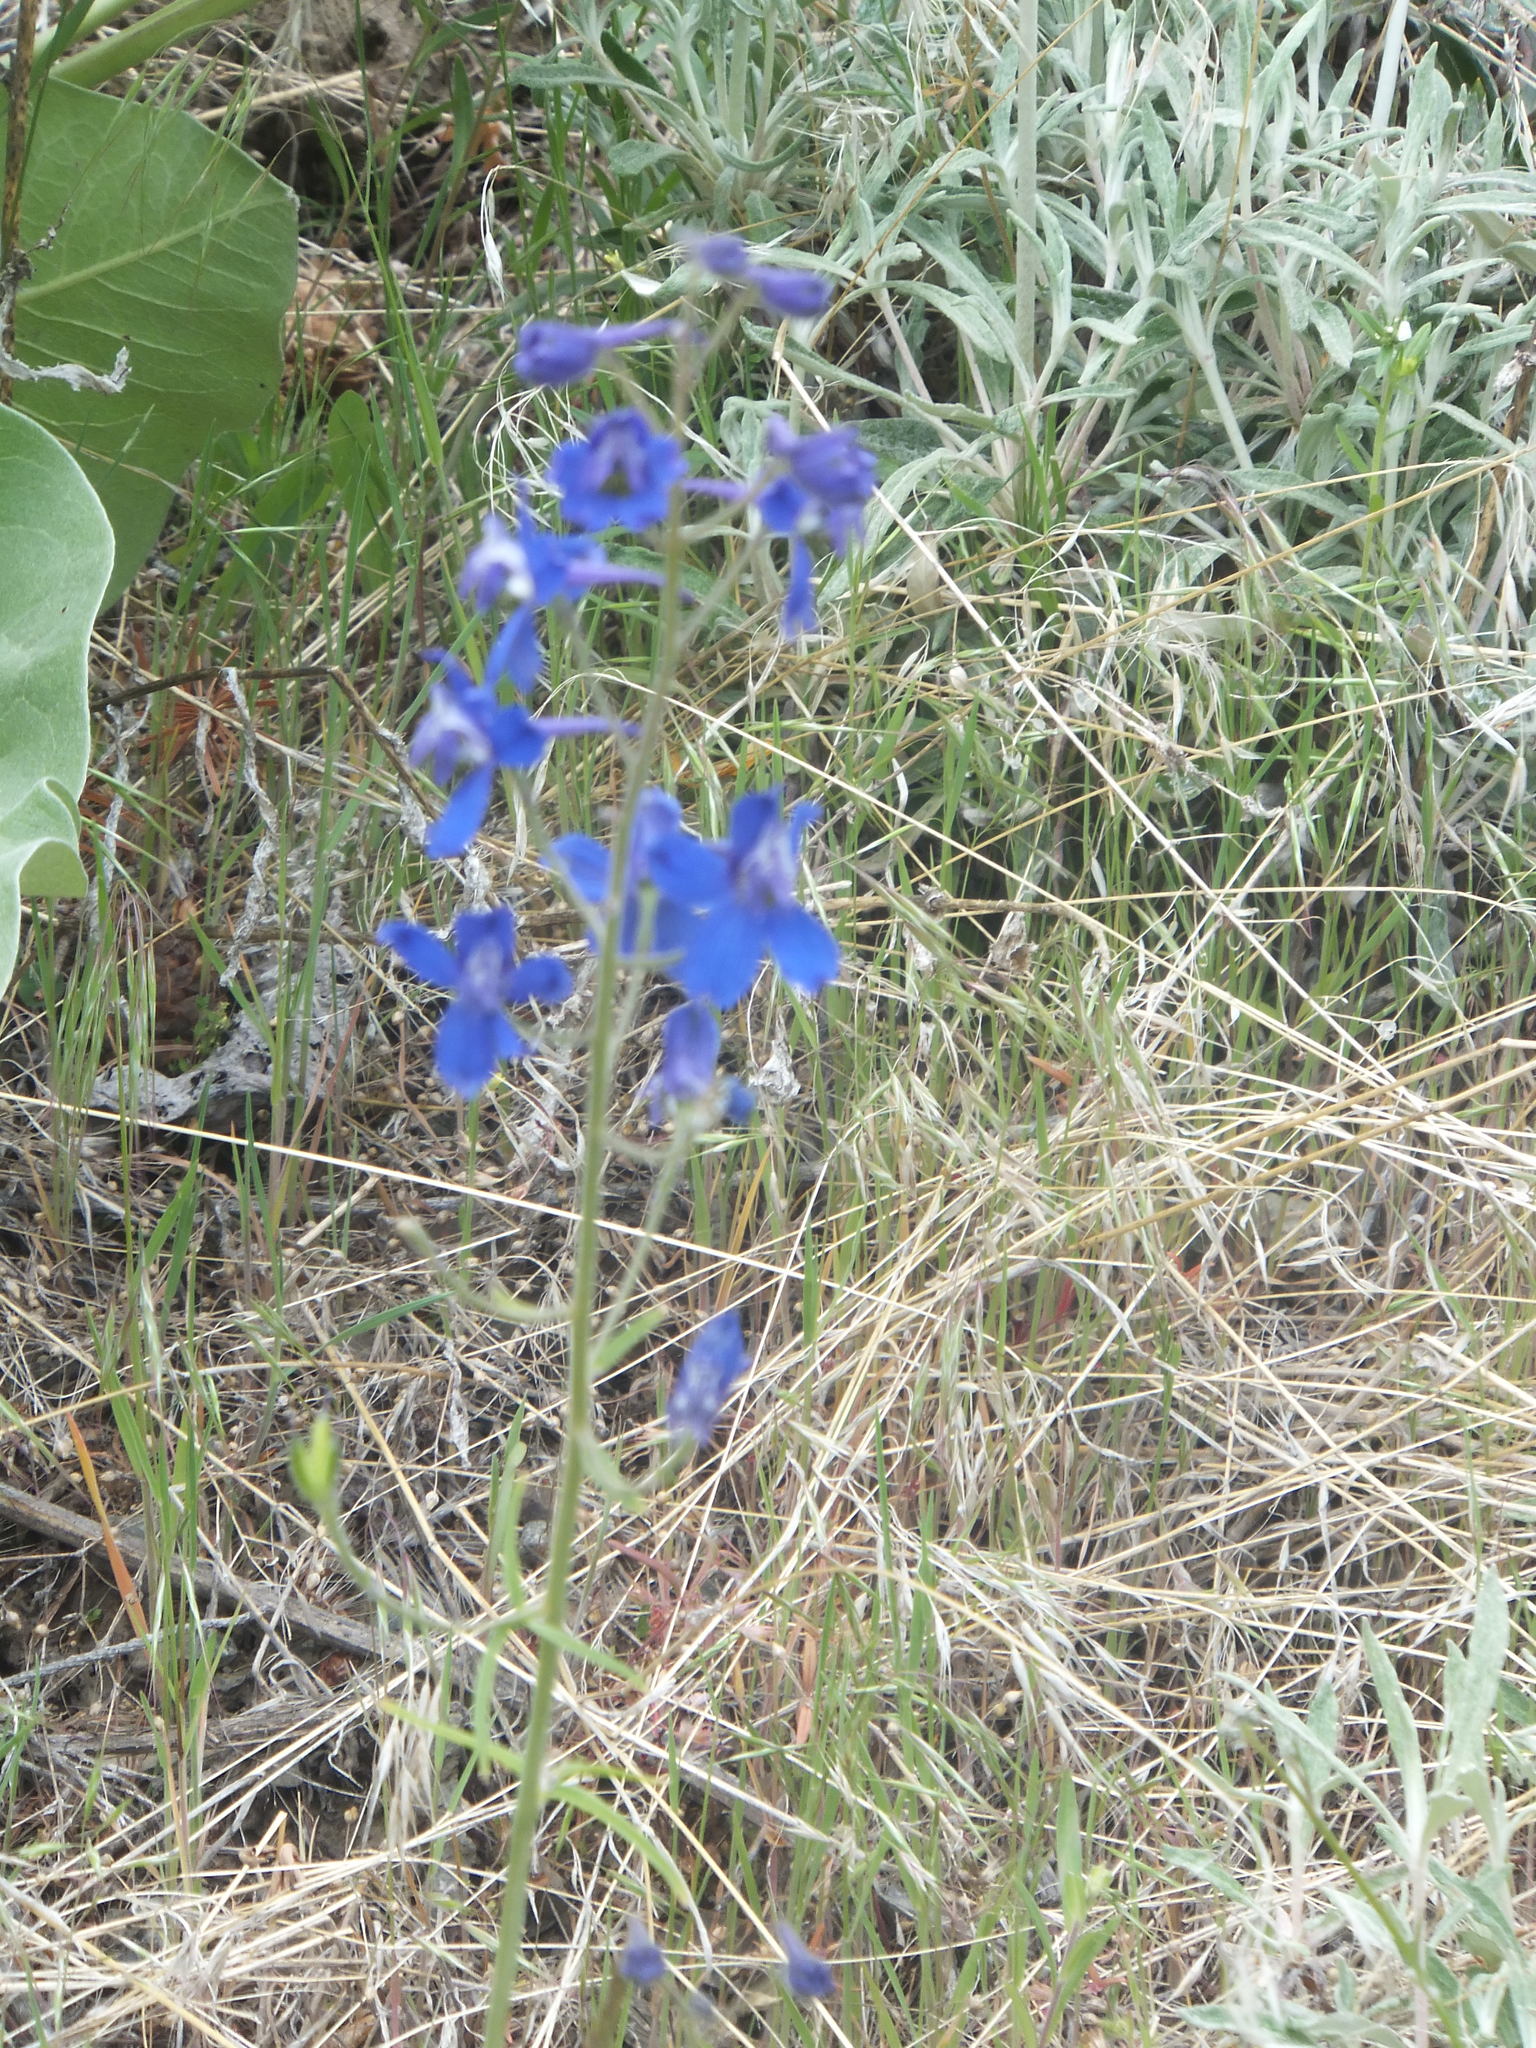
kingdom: Plantae
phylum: Tracheophyta
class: Magnoliopsida
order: Ranunculales
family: Ranunculaceae
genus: Delphinium
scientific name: Delphinium nuttallianum
